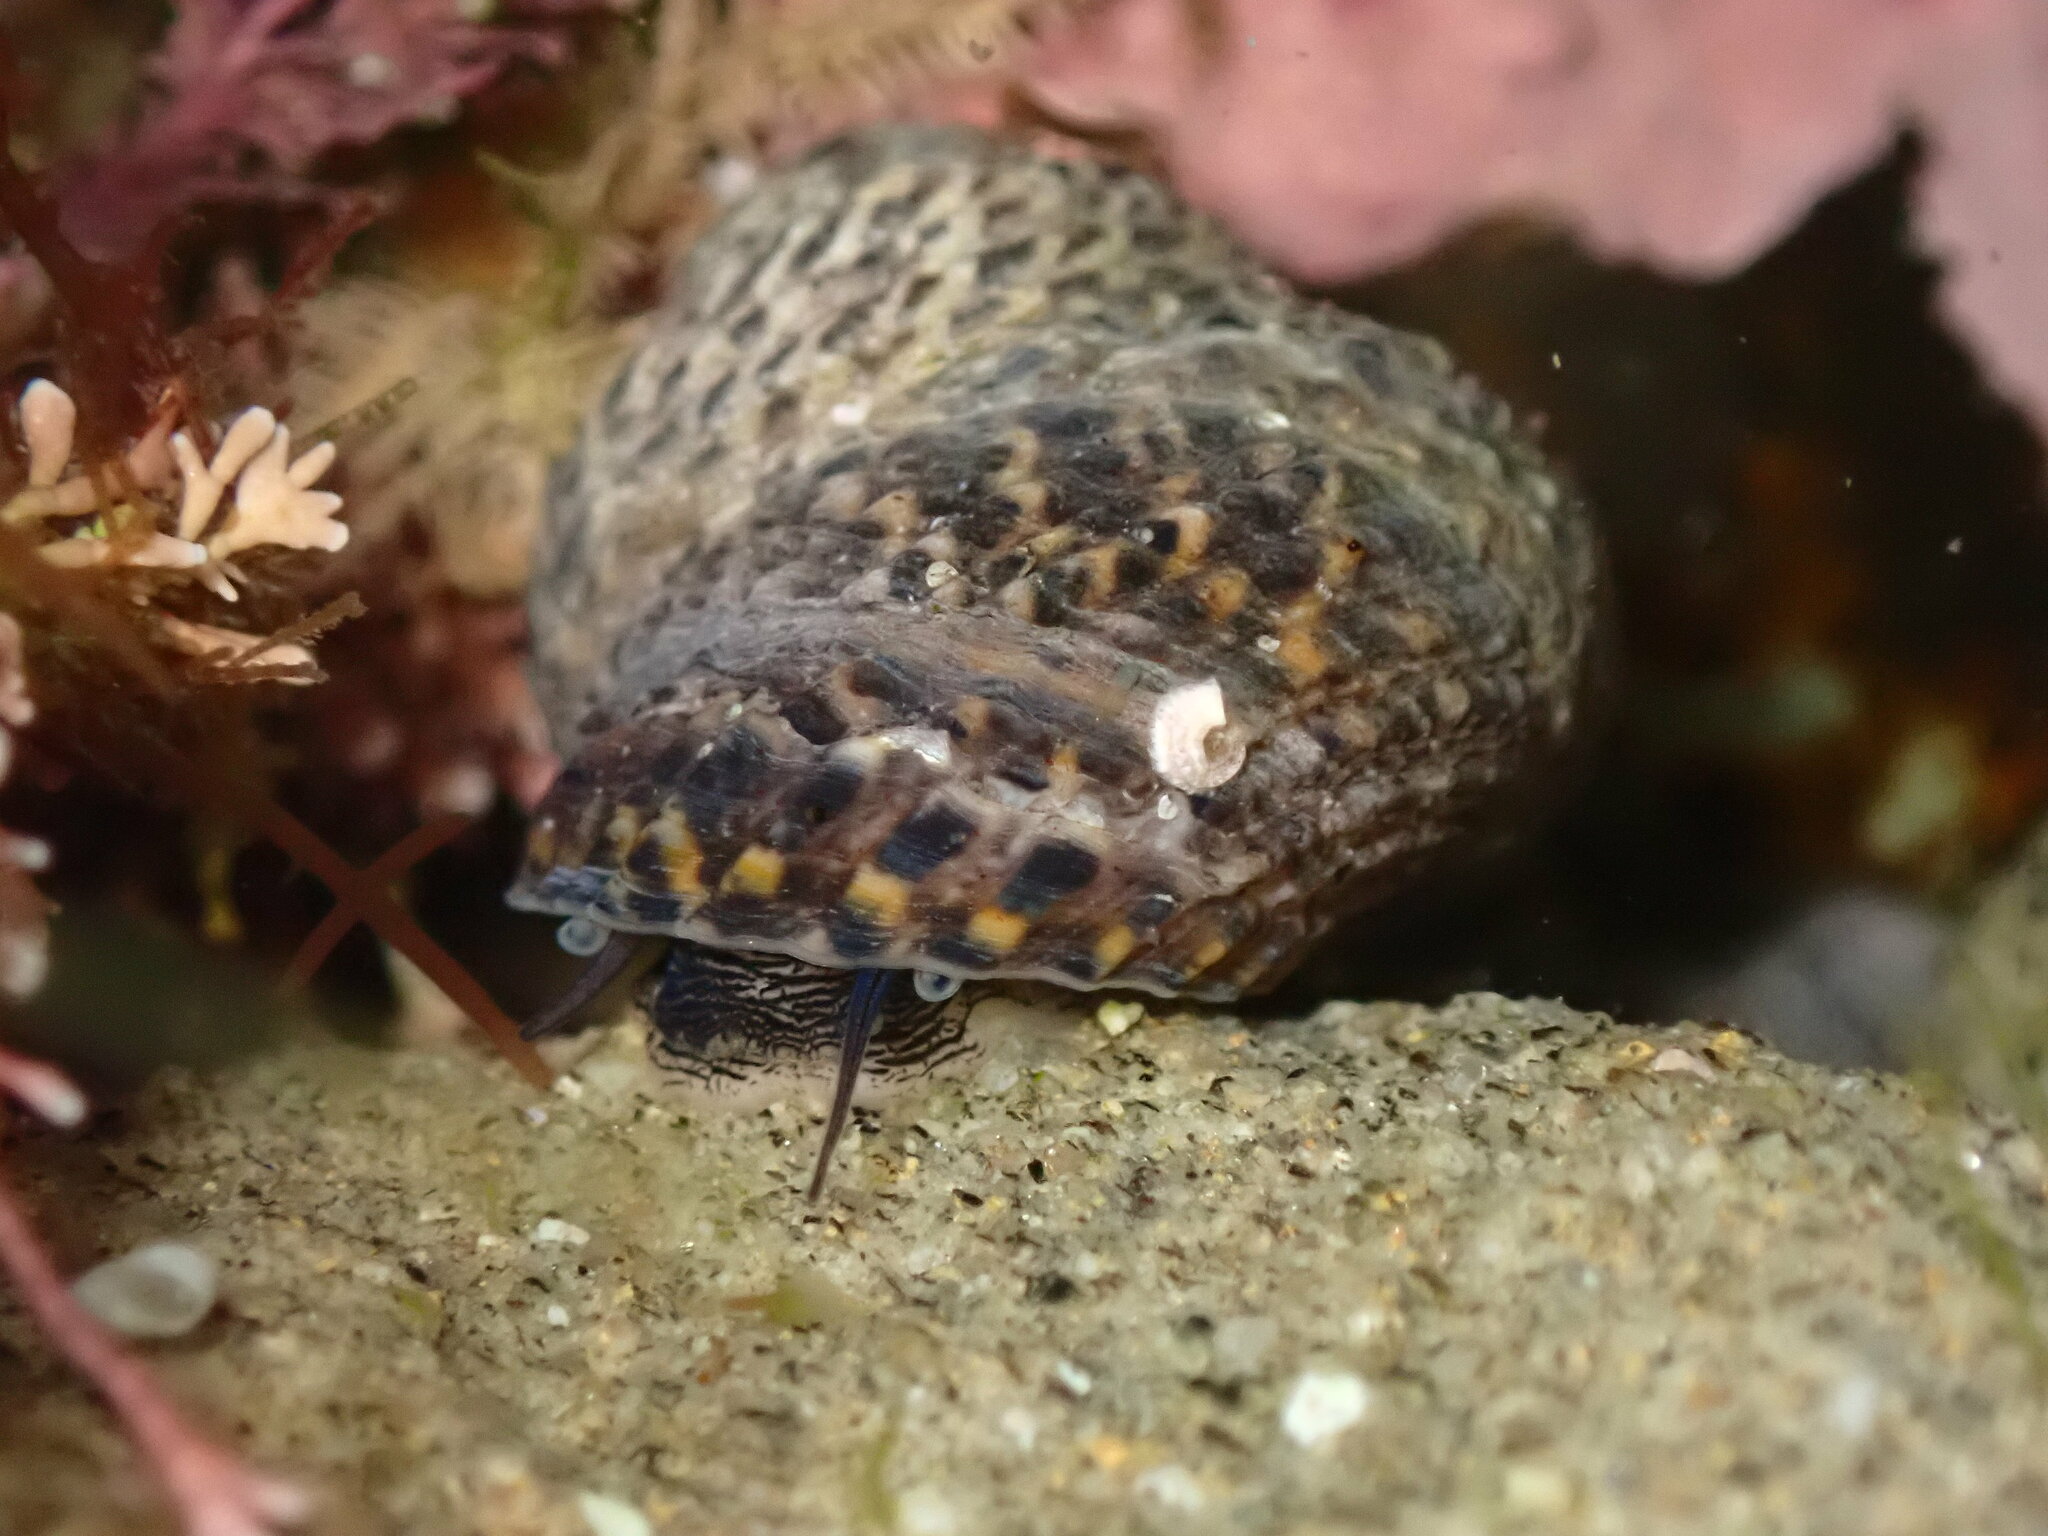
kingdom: Animalia
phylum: Mollusca
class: Gastropoda
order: Trochida
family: Tegulidae
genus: Tegula
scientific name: Tegula eiseni
